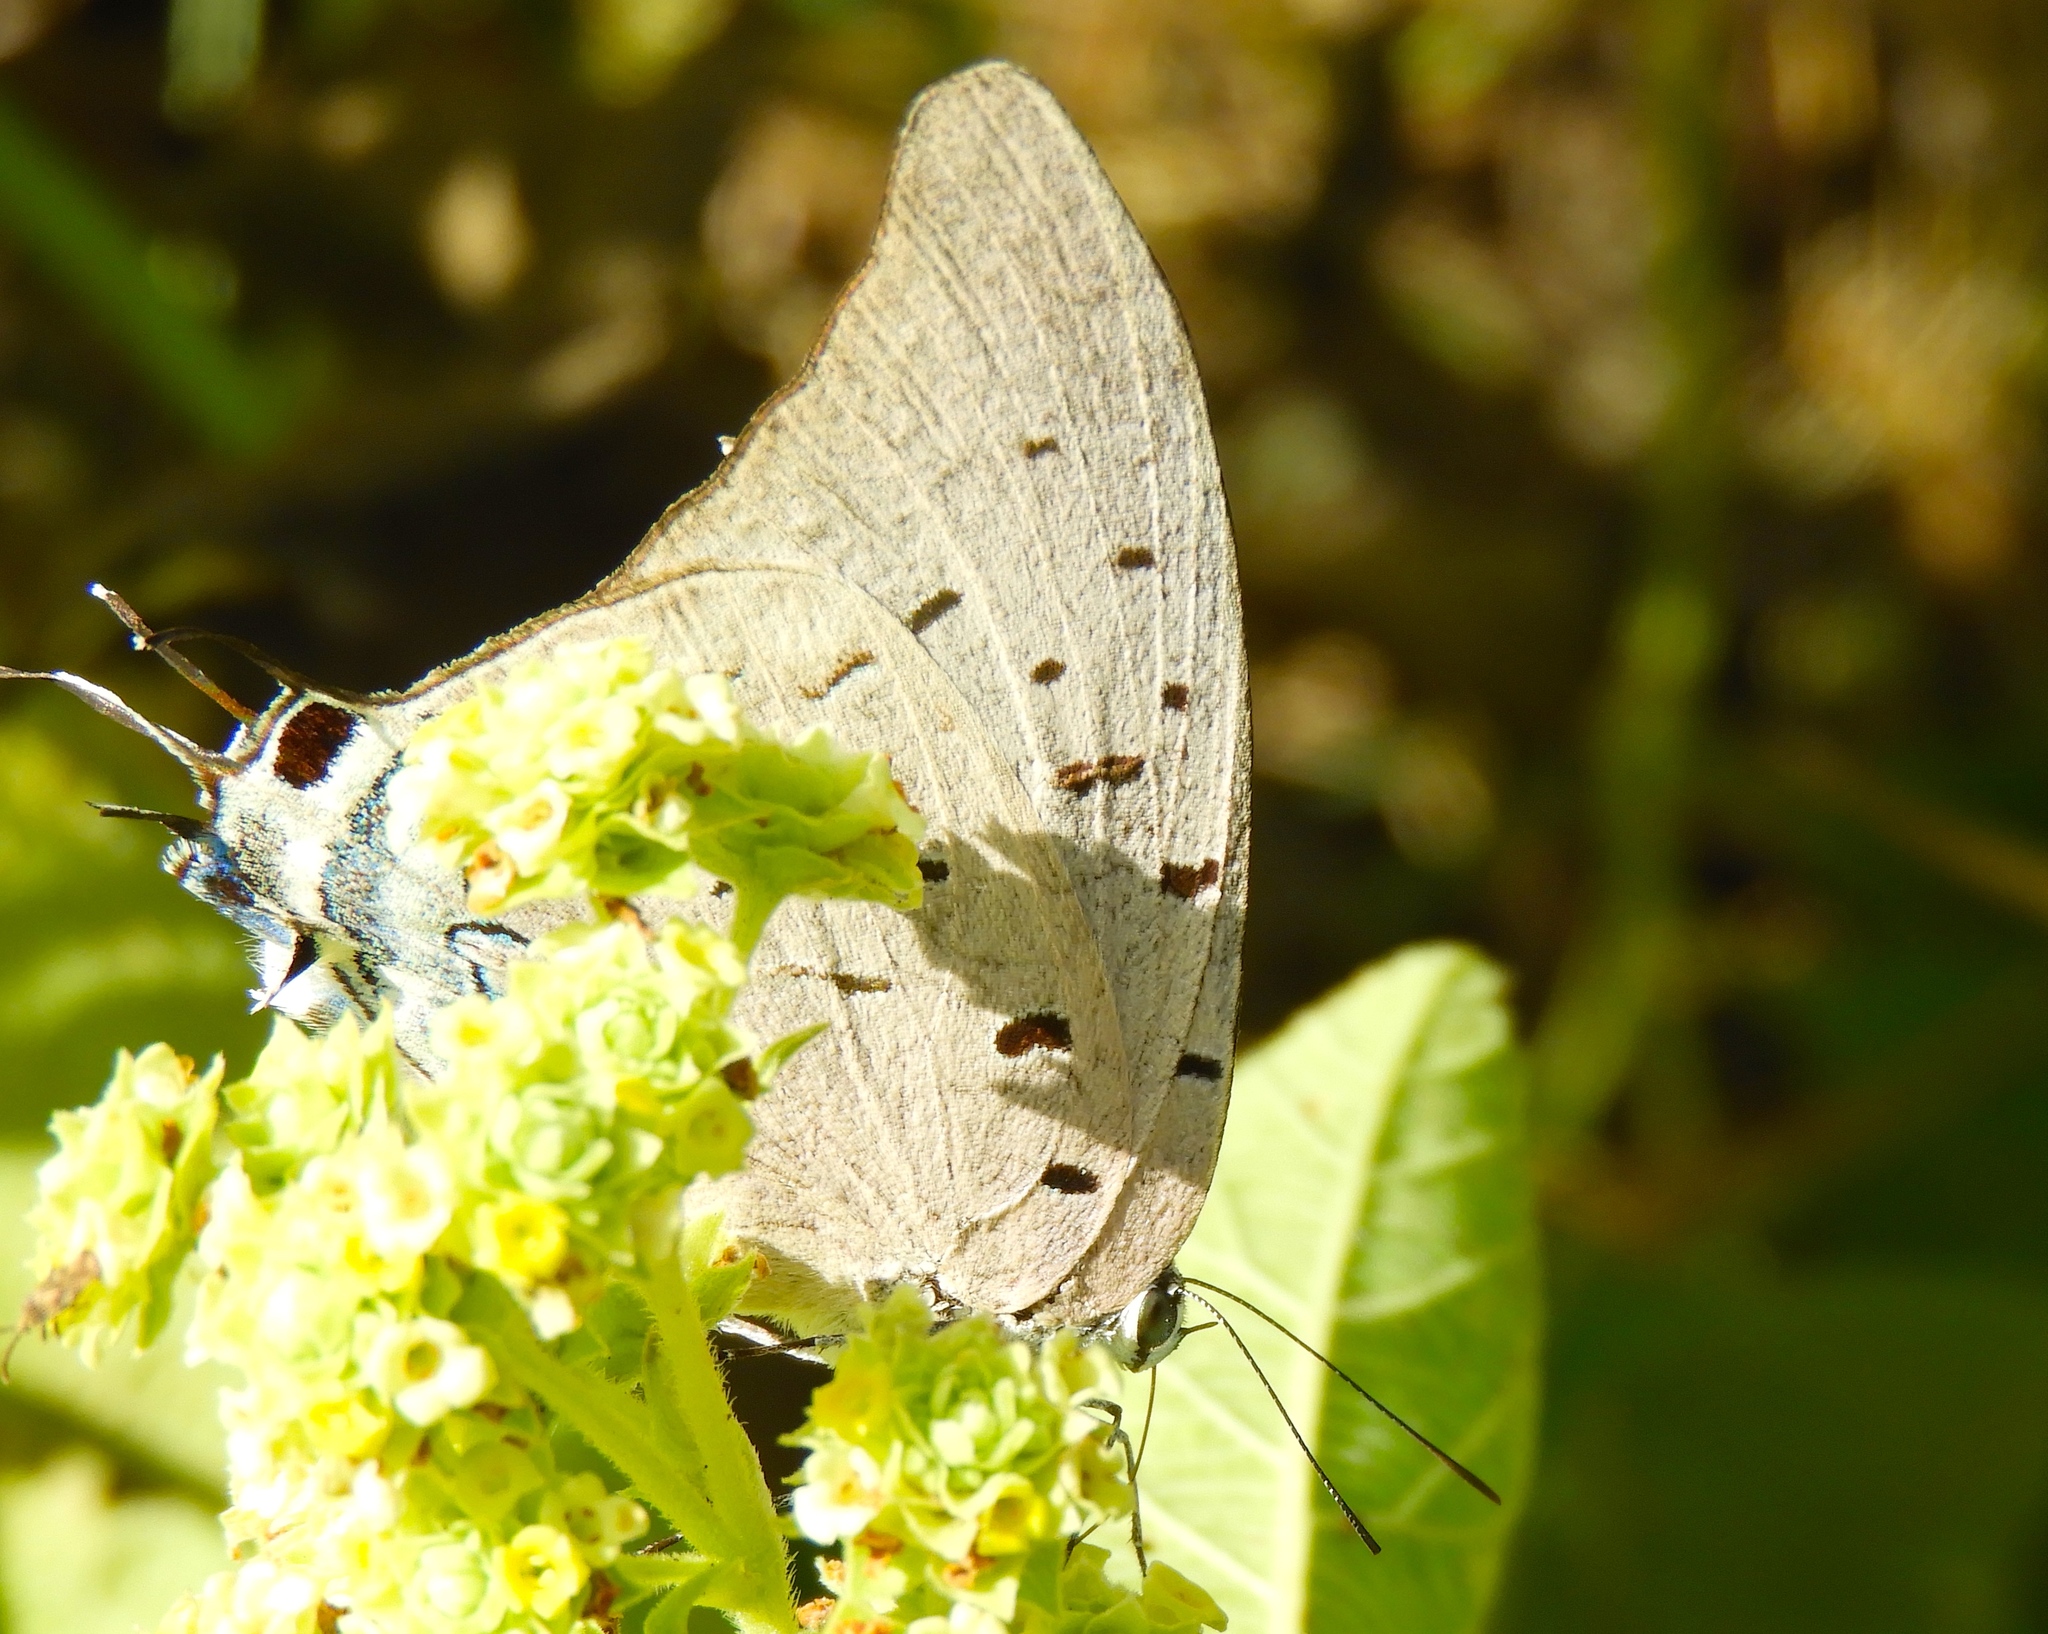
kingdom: Animalia
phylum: Arthropoda
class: Insecta
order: Lepidoptera
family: Lycaenidae
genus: Pseudolycaena
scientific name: Pseudolycaena damo
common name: Sky-blue hairstreak
